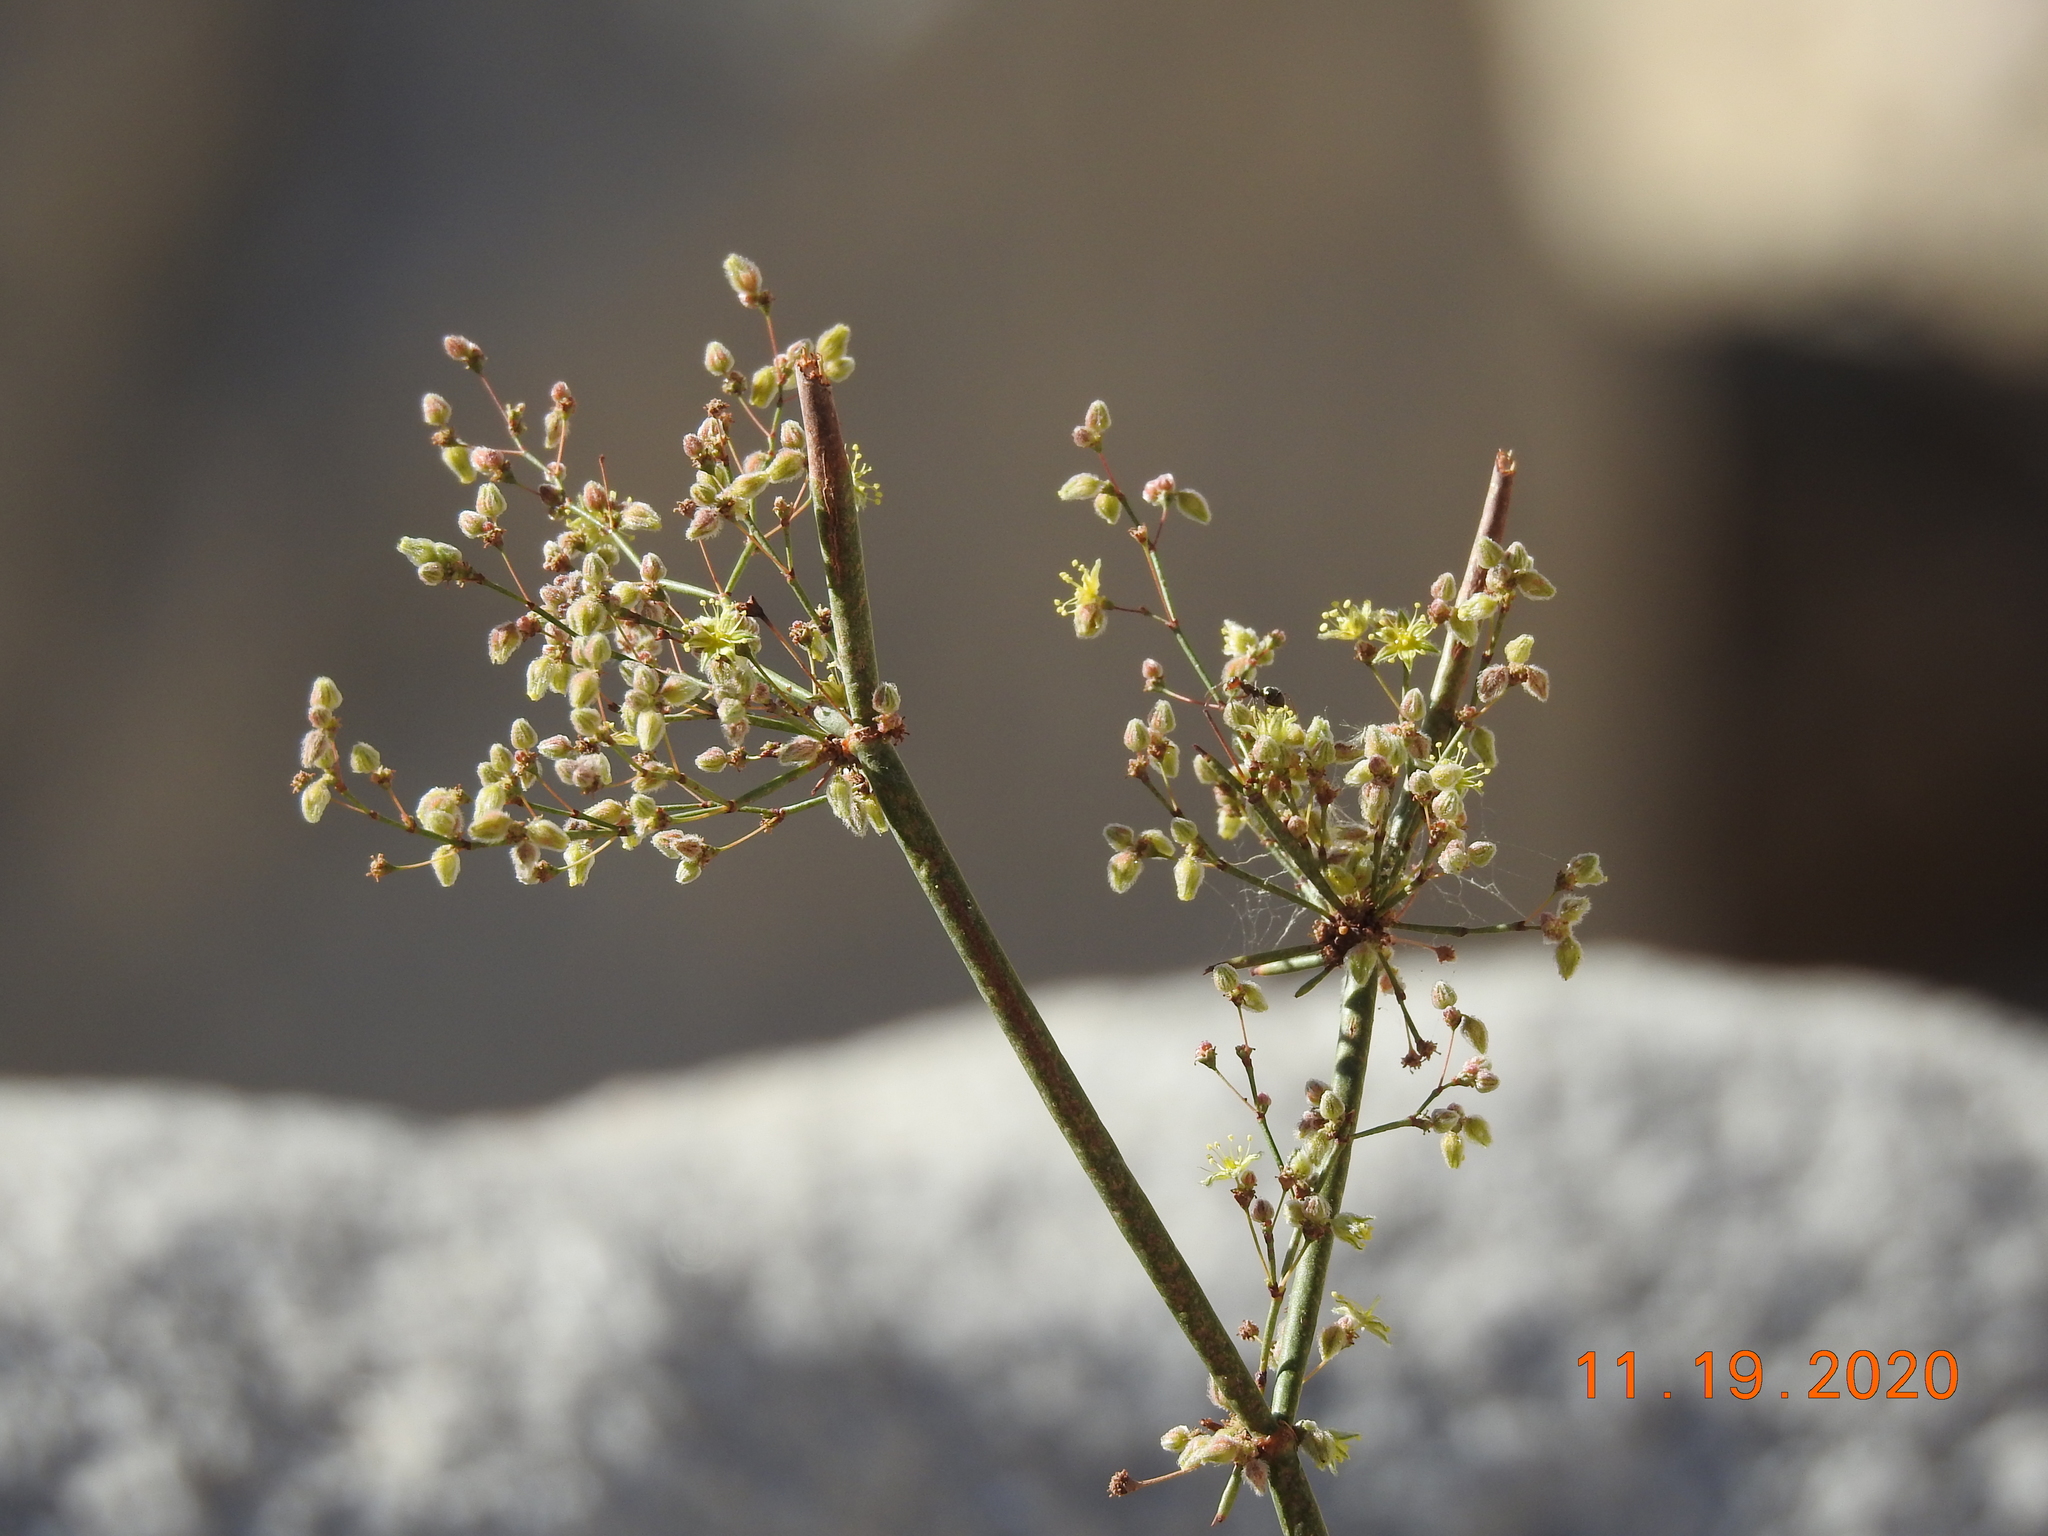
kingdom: Plantae
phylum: Tracheophyta
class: Magnoliopsida
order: Caryophyllales
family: Polygonaceae
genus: Eriogonum
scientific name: Eriogonum inflatum
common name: Desert trumpet
